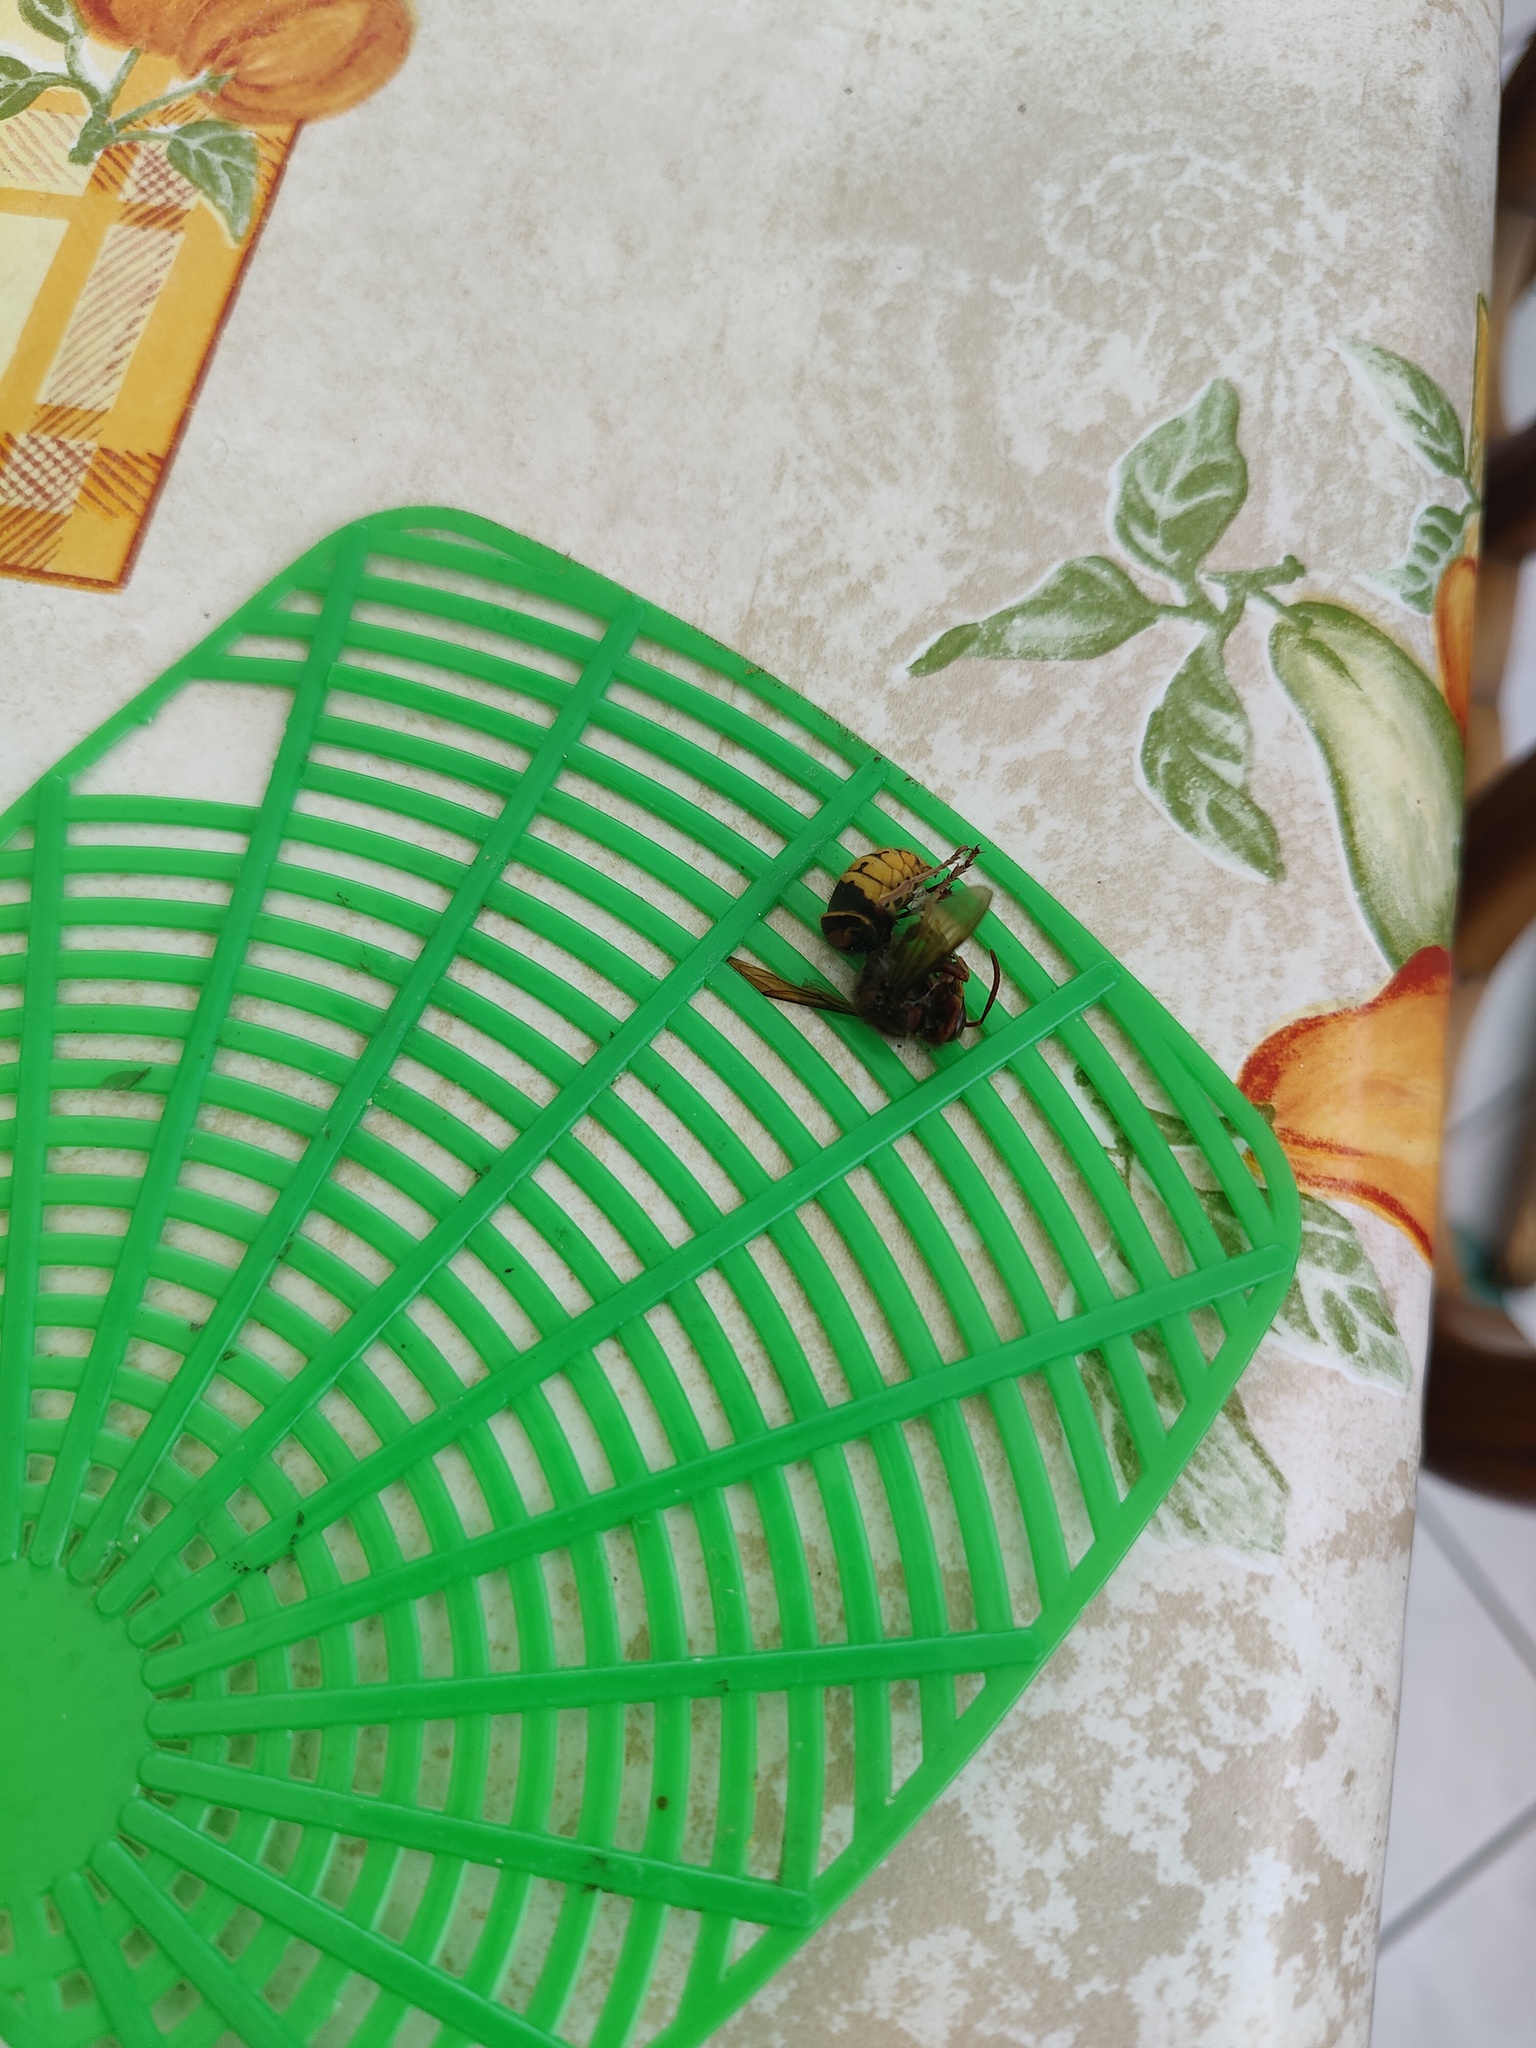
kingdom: Animalia
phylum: Arthropoda
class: Insecta
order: Hymenoptera
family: Vespidae
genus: Vespa
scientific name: Vespa crabro
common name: Hornet
